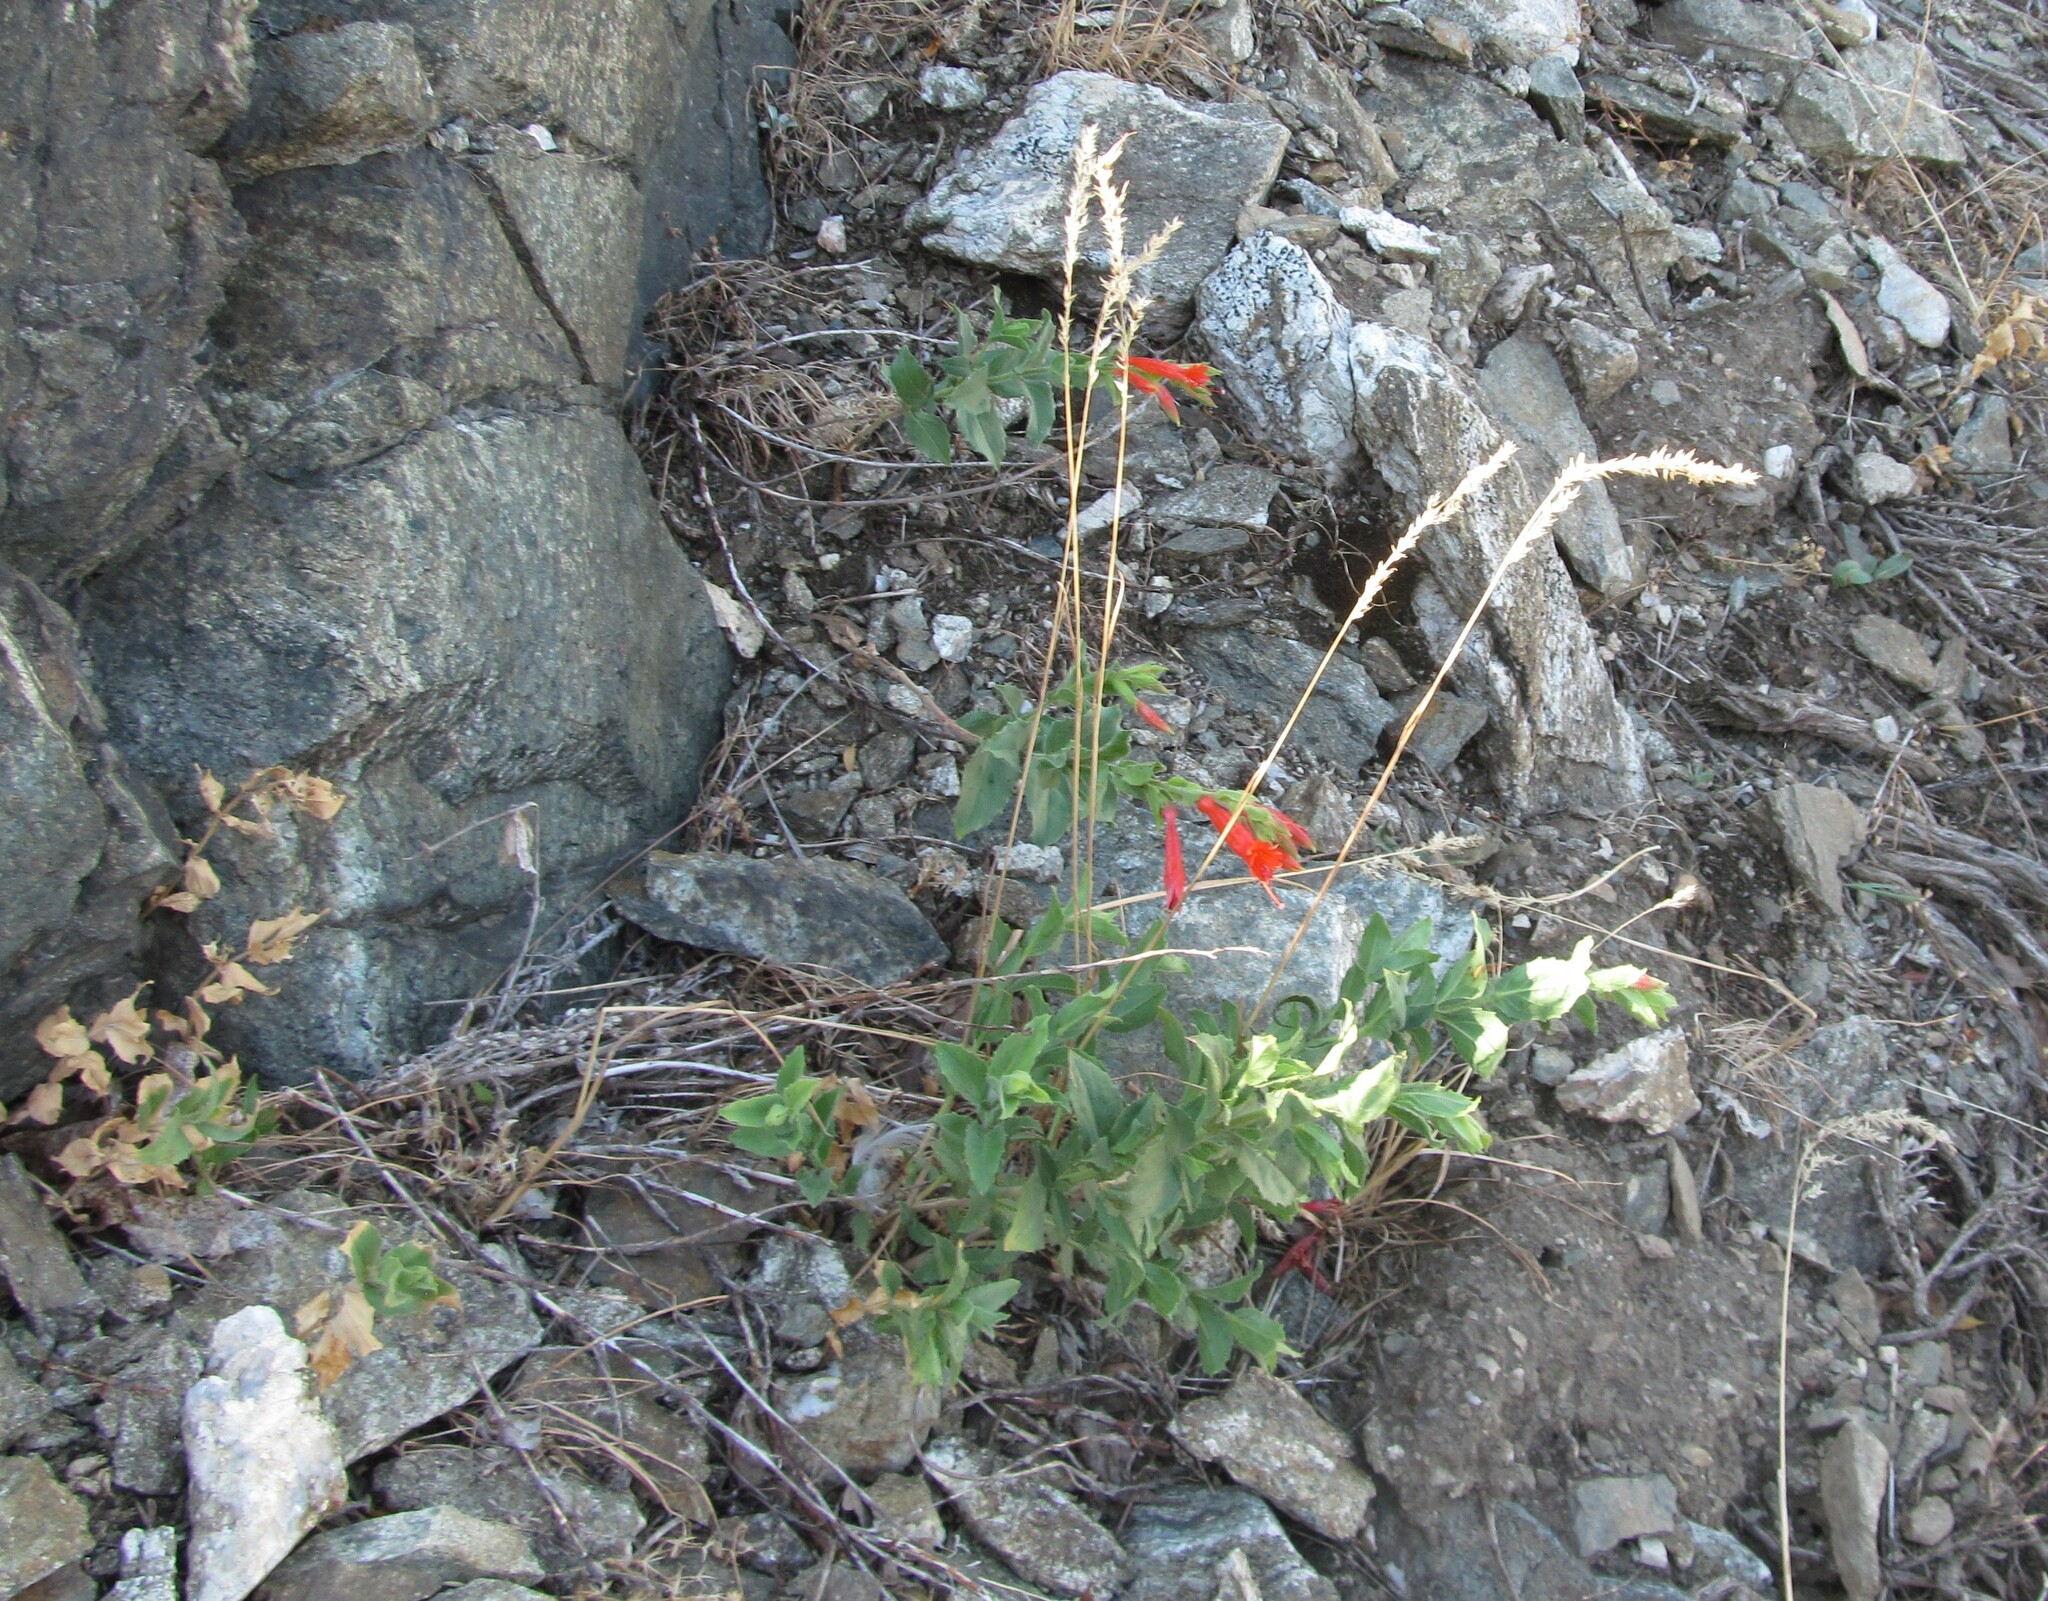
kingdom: Plantae
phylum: Tracheophyta
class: Magnoliopsida
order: Myrtales
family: Onagraceae
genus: Epilobium
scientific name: Epilobium canum
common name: California-fuchsia
